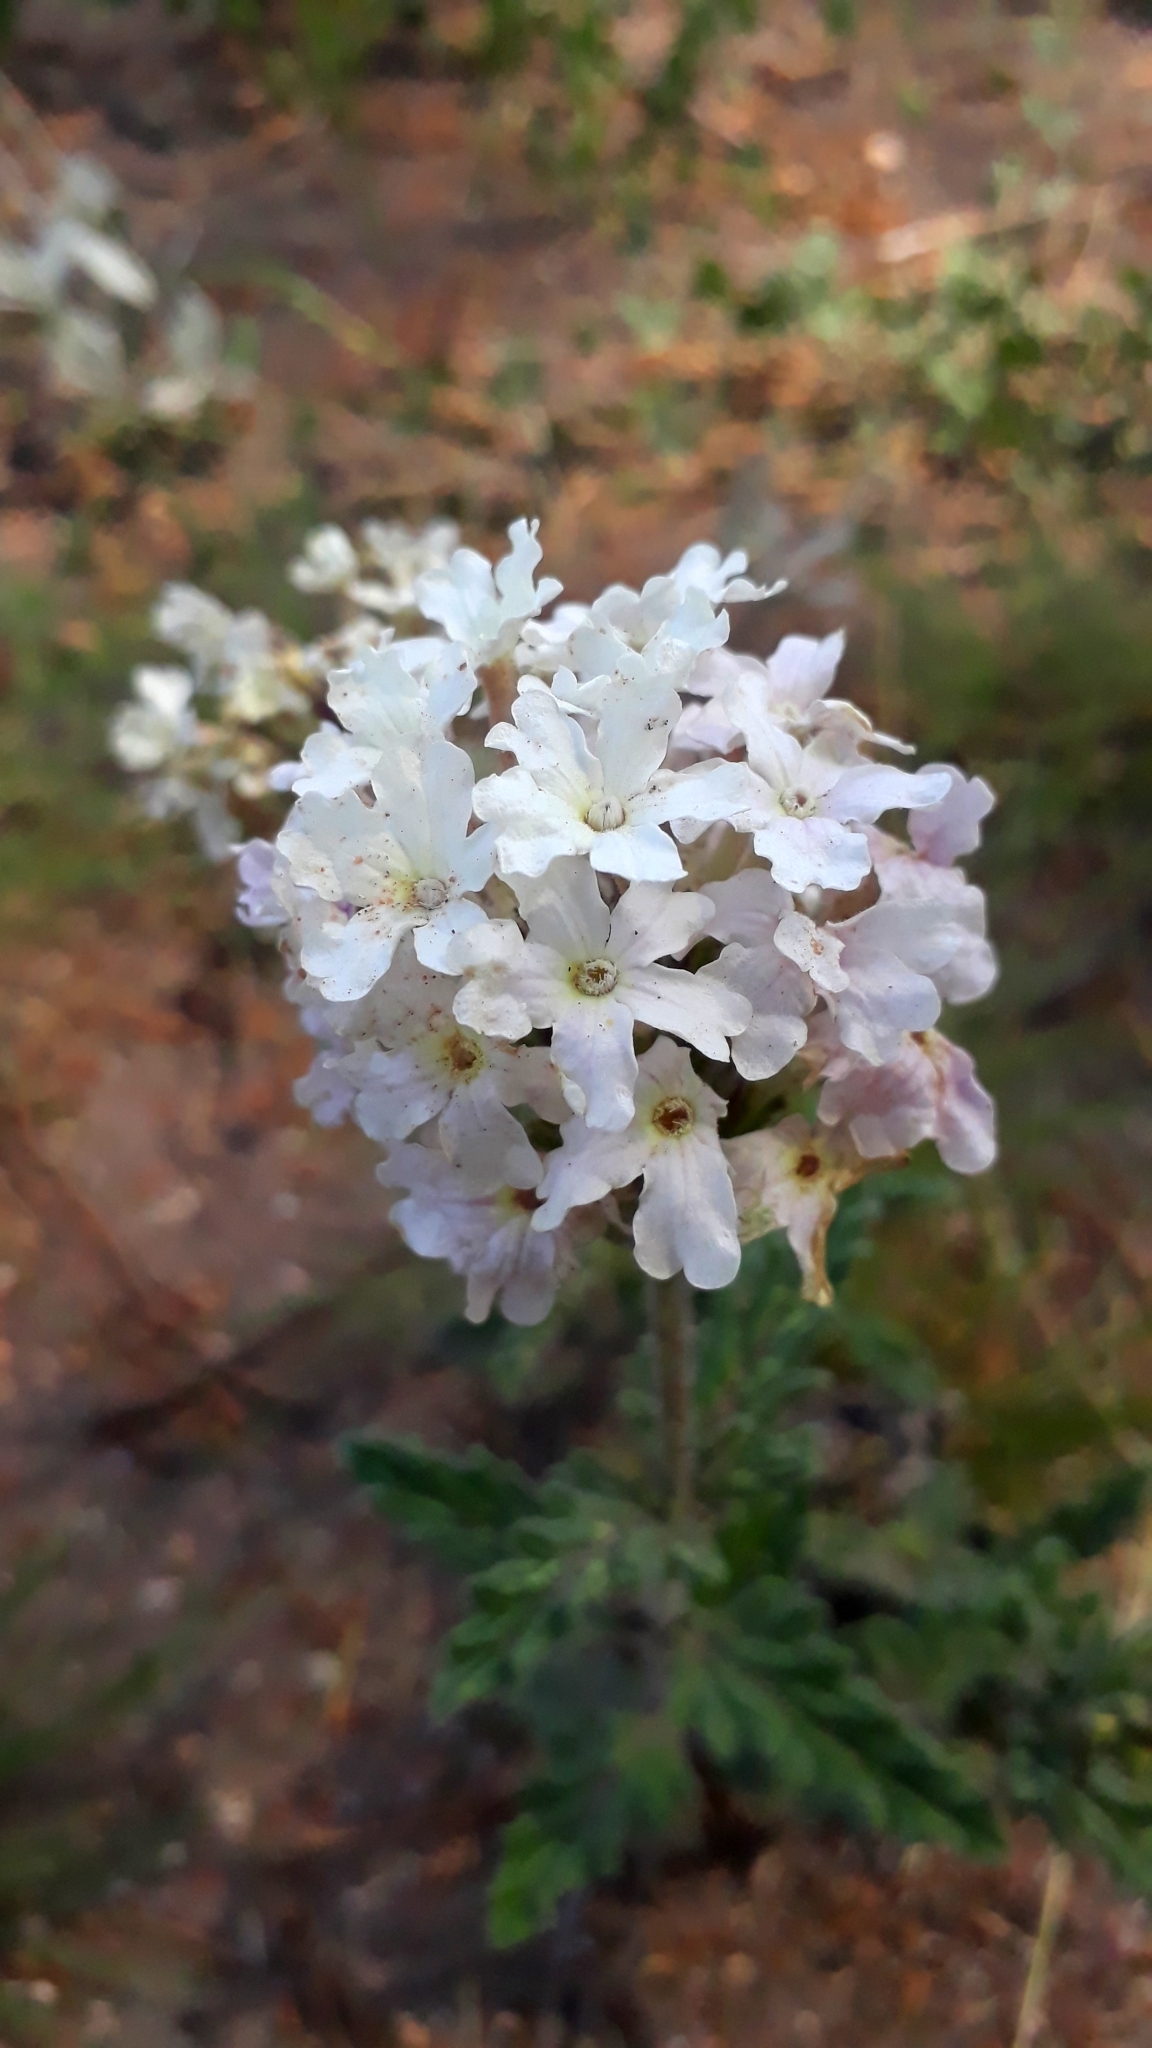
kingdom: Plantae
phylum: Tracheophyta
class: Magnoliopsida
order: Lamiales
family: Verbenaceae
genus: Verbena
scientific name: Verbena platensis
